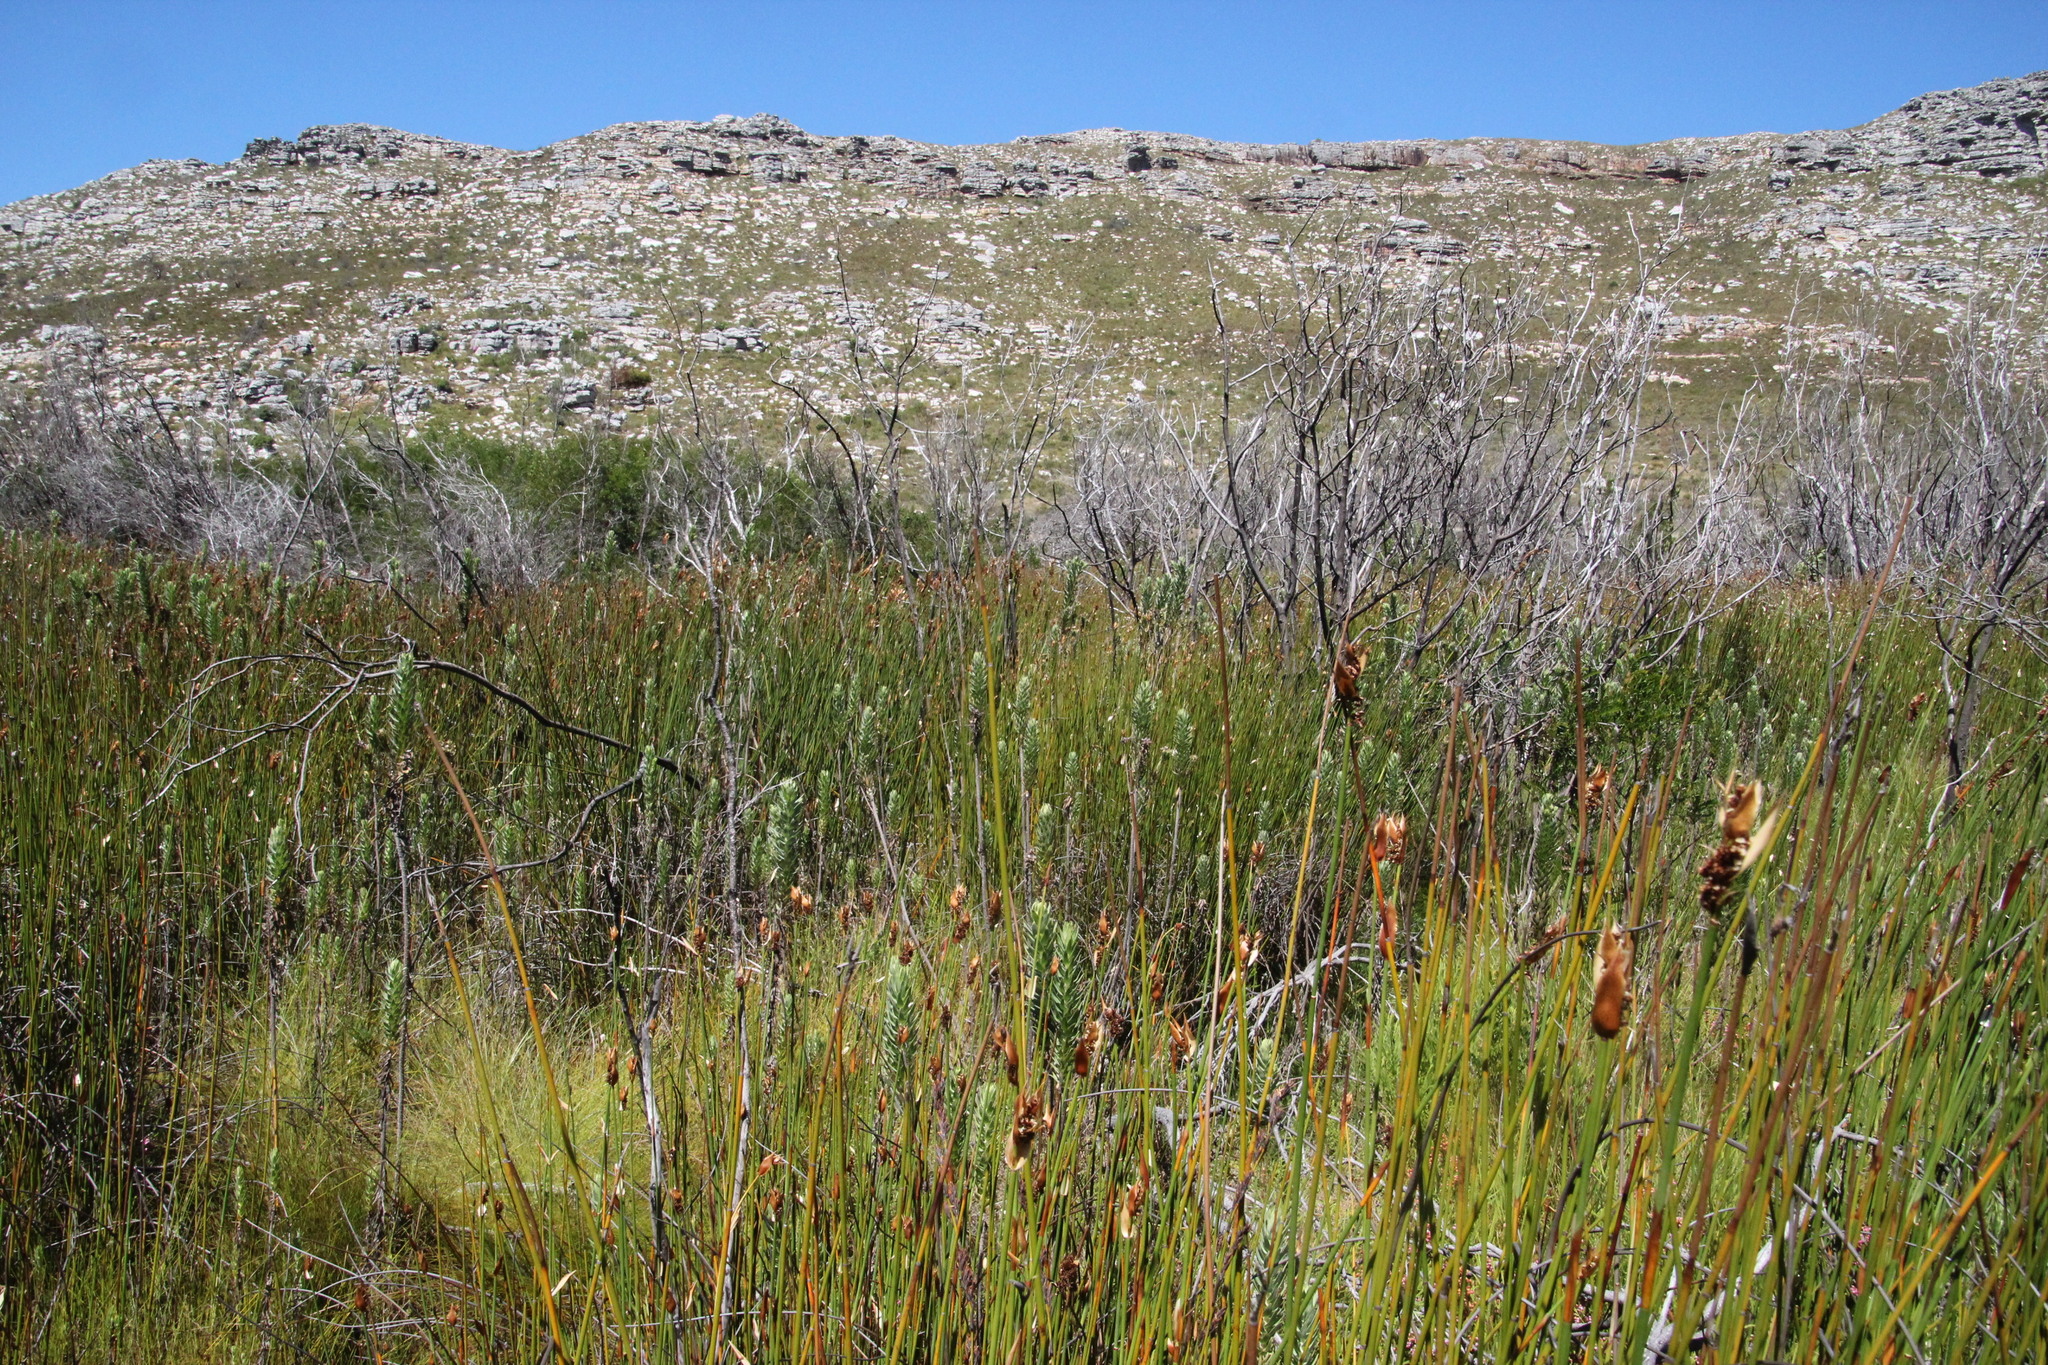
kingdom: Plantae
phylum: Tracheophyta
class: Magnoliopsida
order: Asterales
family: Asteraceae
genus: Osmitopsis
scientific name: Osmitopsis asteriscoides
